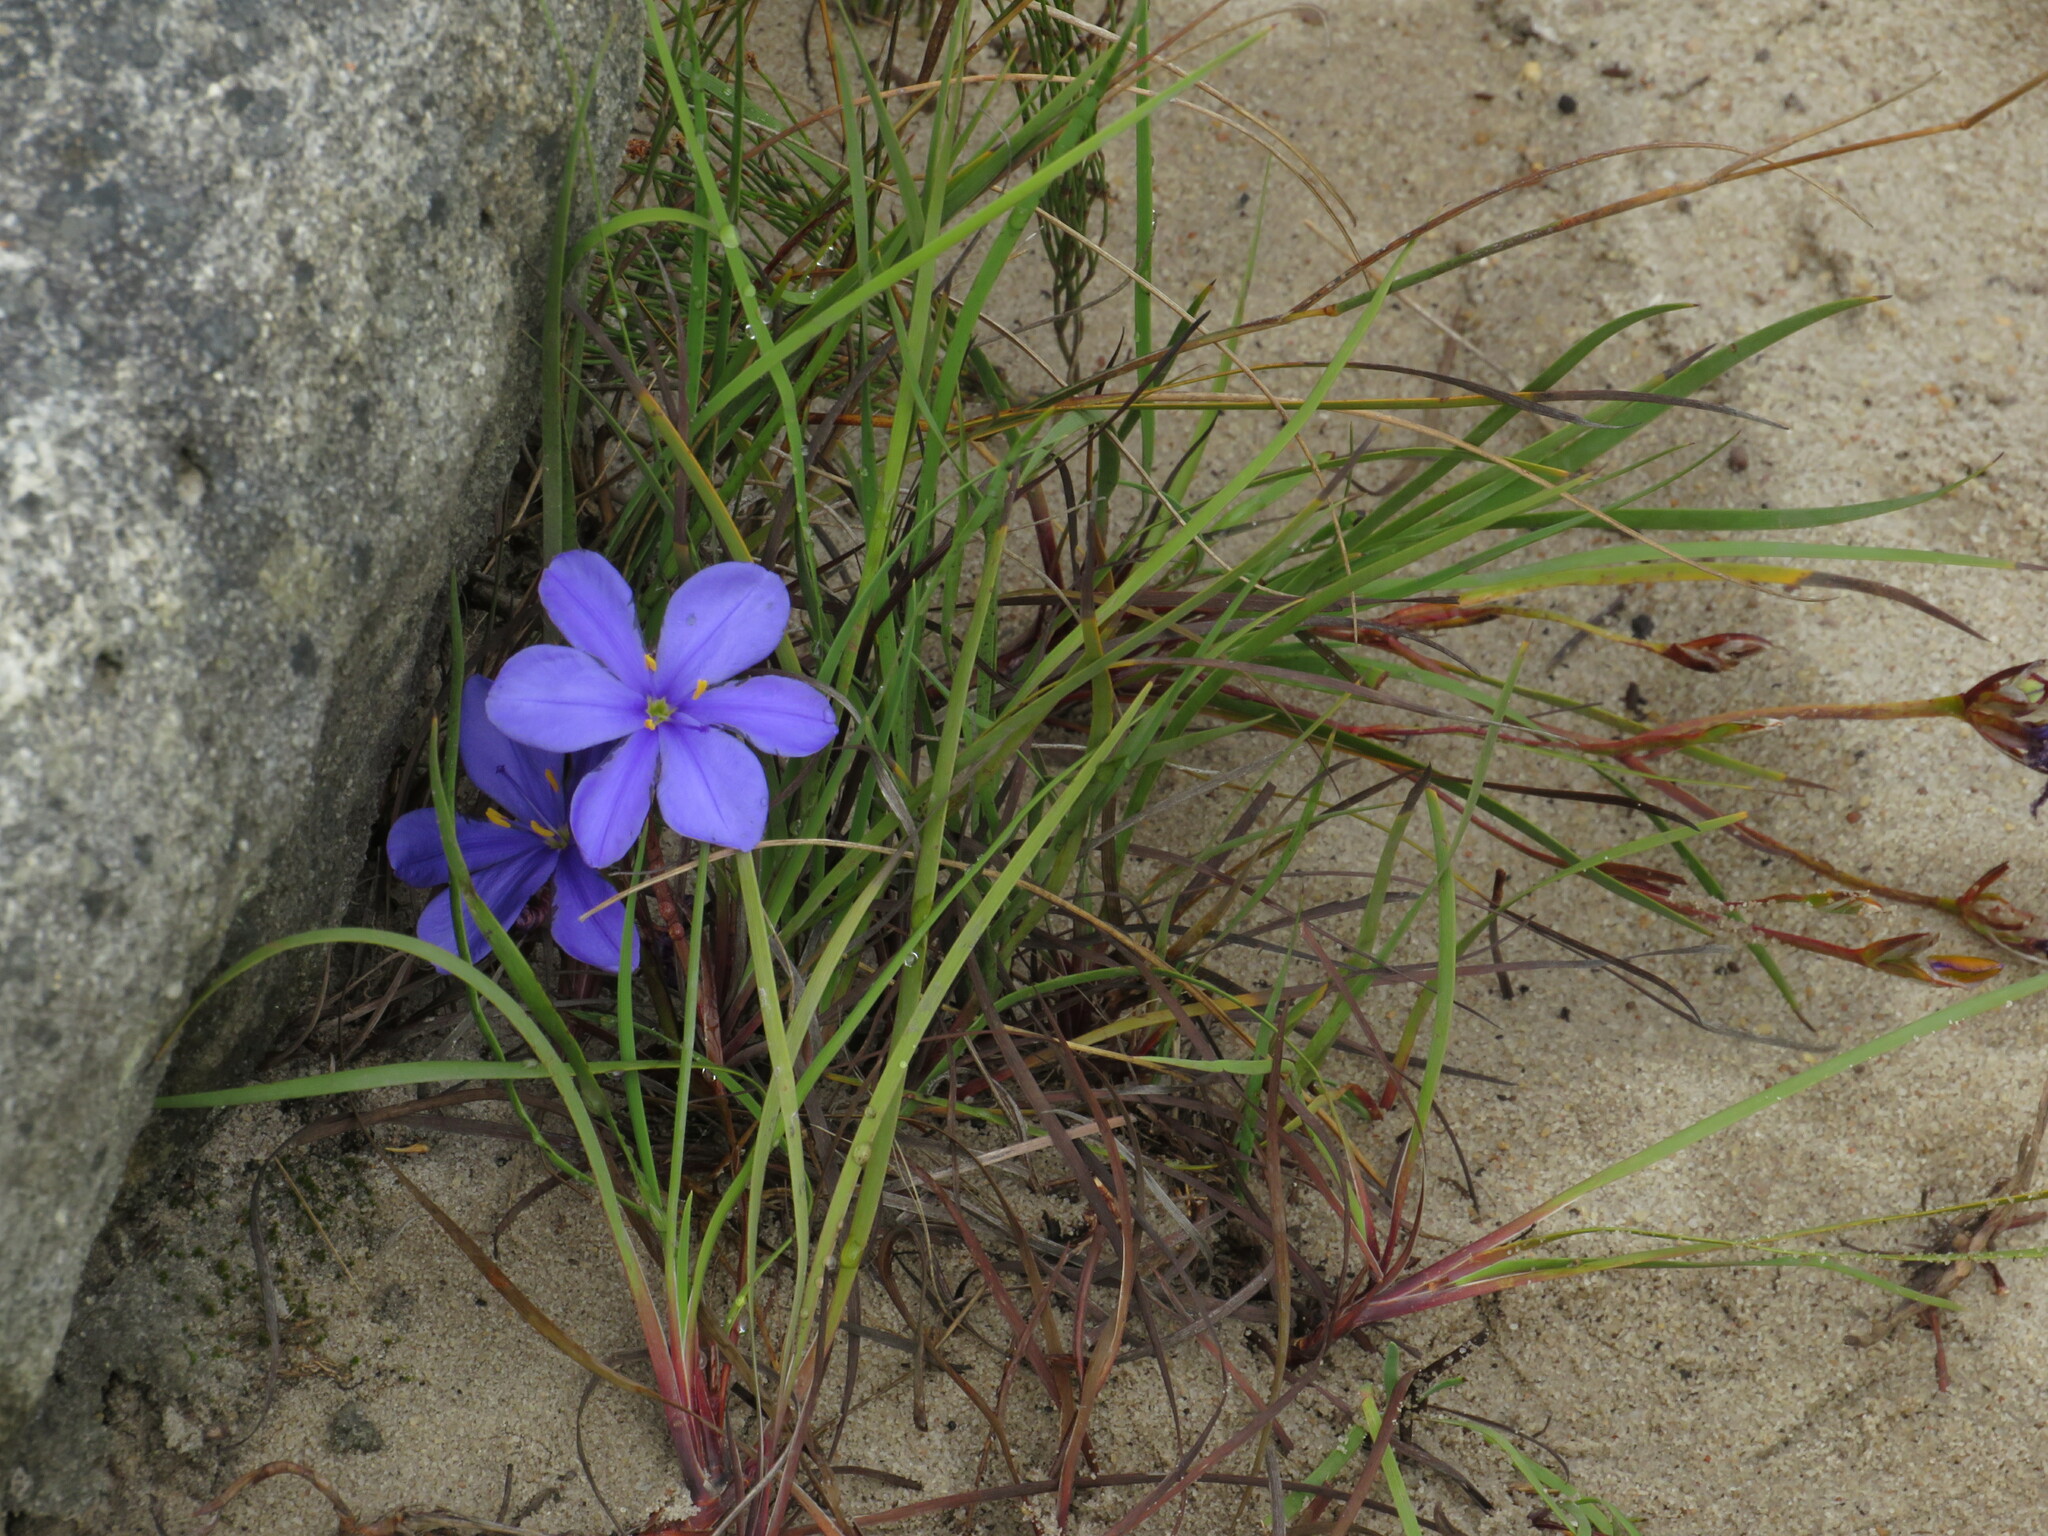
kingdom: Plantae
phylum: Tracheophyta
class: Liliopsida
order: Asparagales
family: Iridaceae
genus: Aristea
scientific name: Aristea glauca
